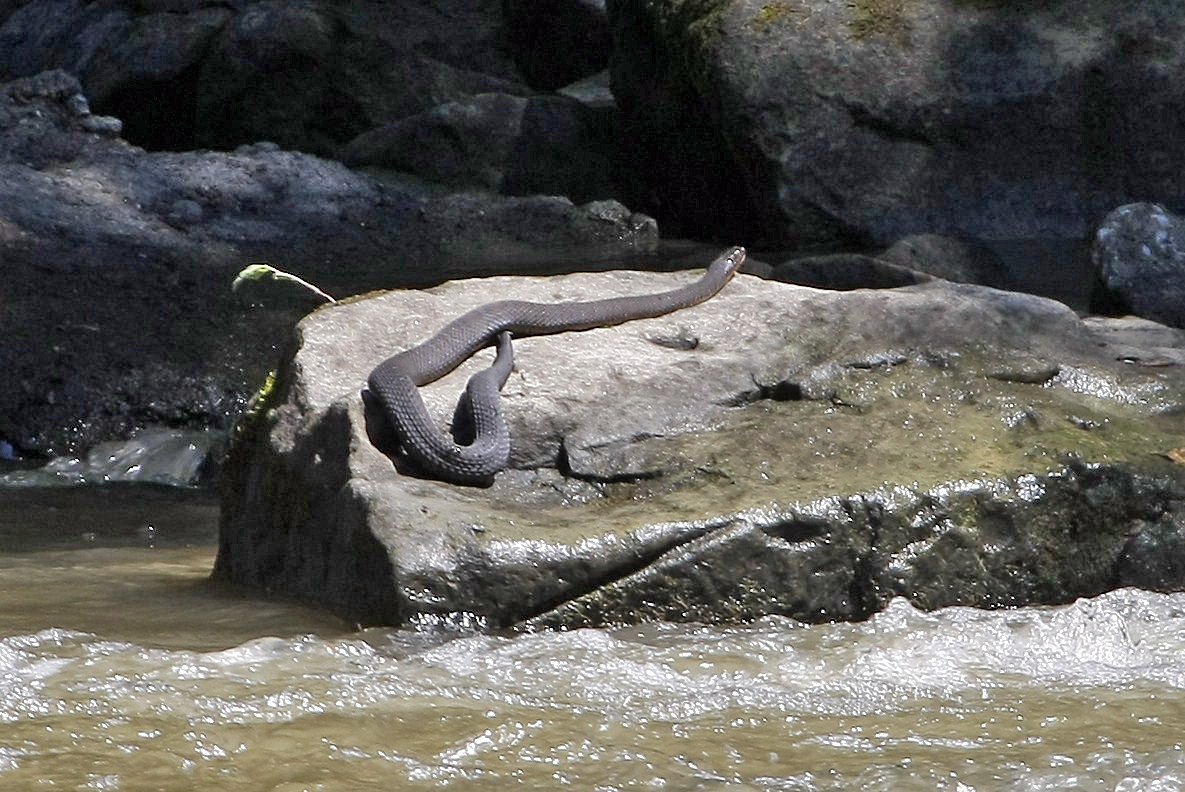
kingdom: Animalia
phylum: Chordata
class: Squamata
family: Colubridae
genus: Nerodia
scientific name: Nerodia sipedon
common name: Northern water snake
